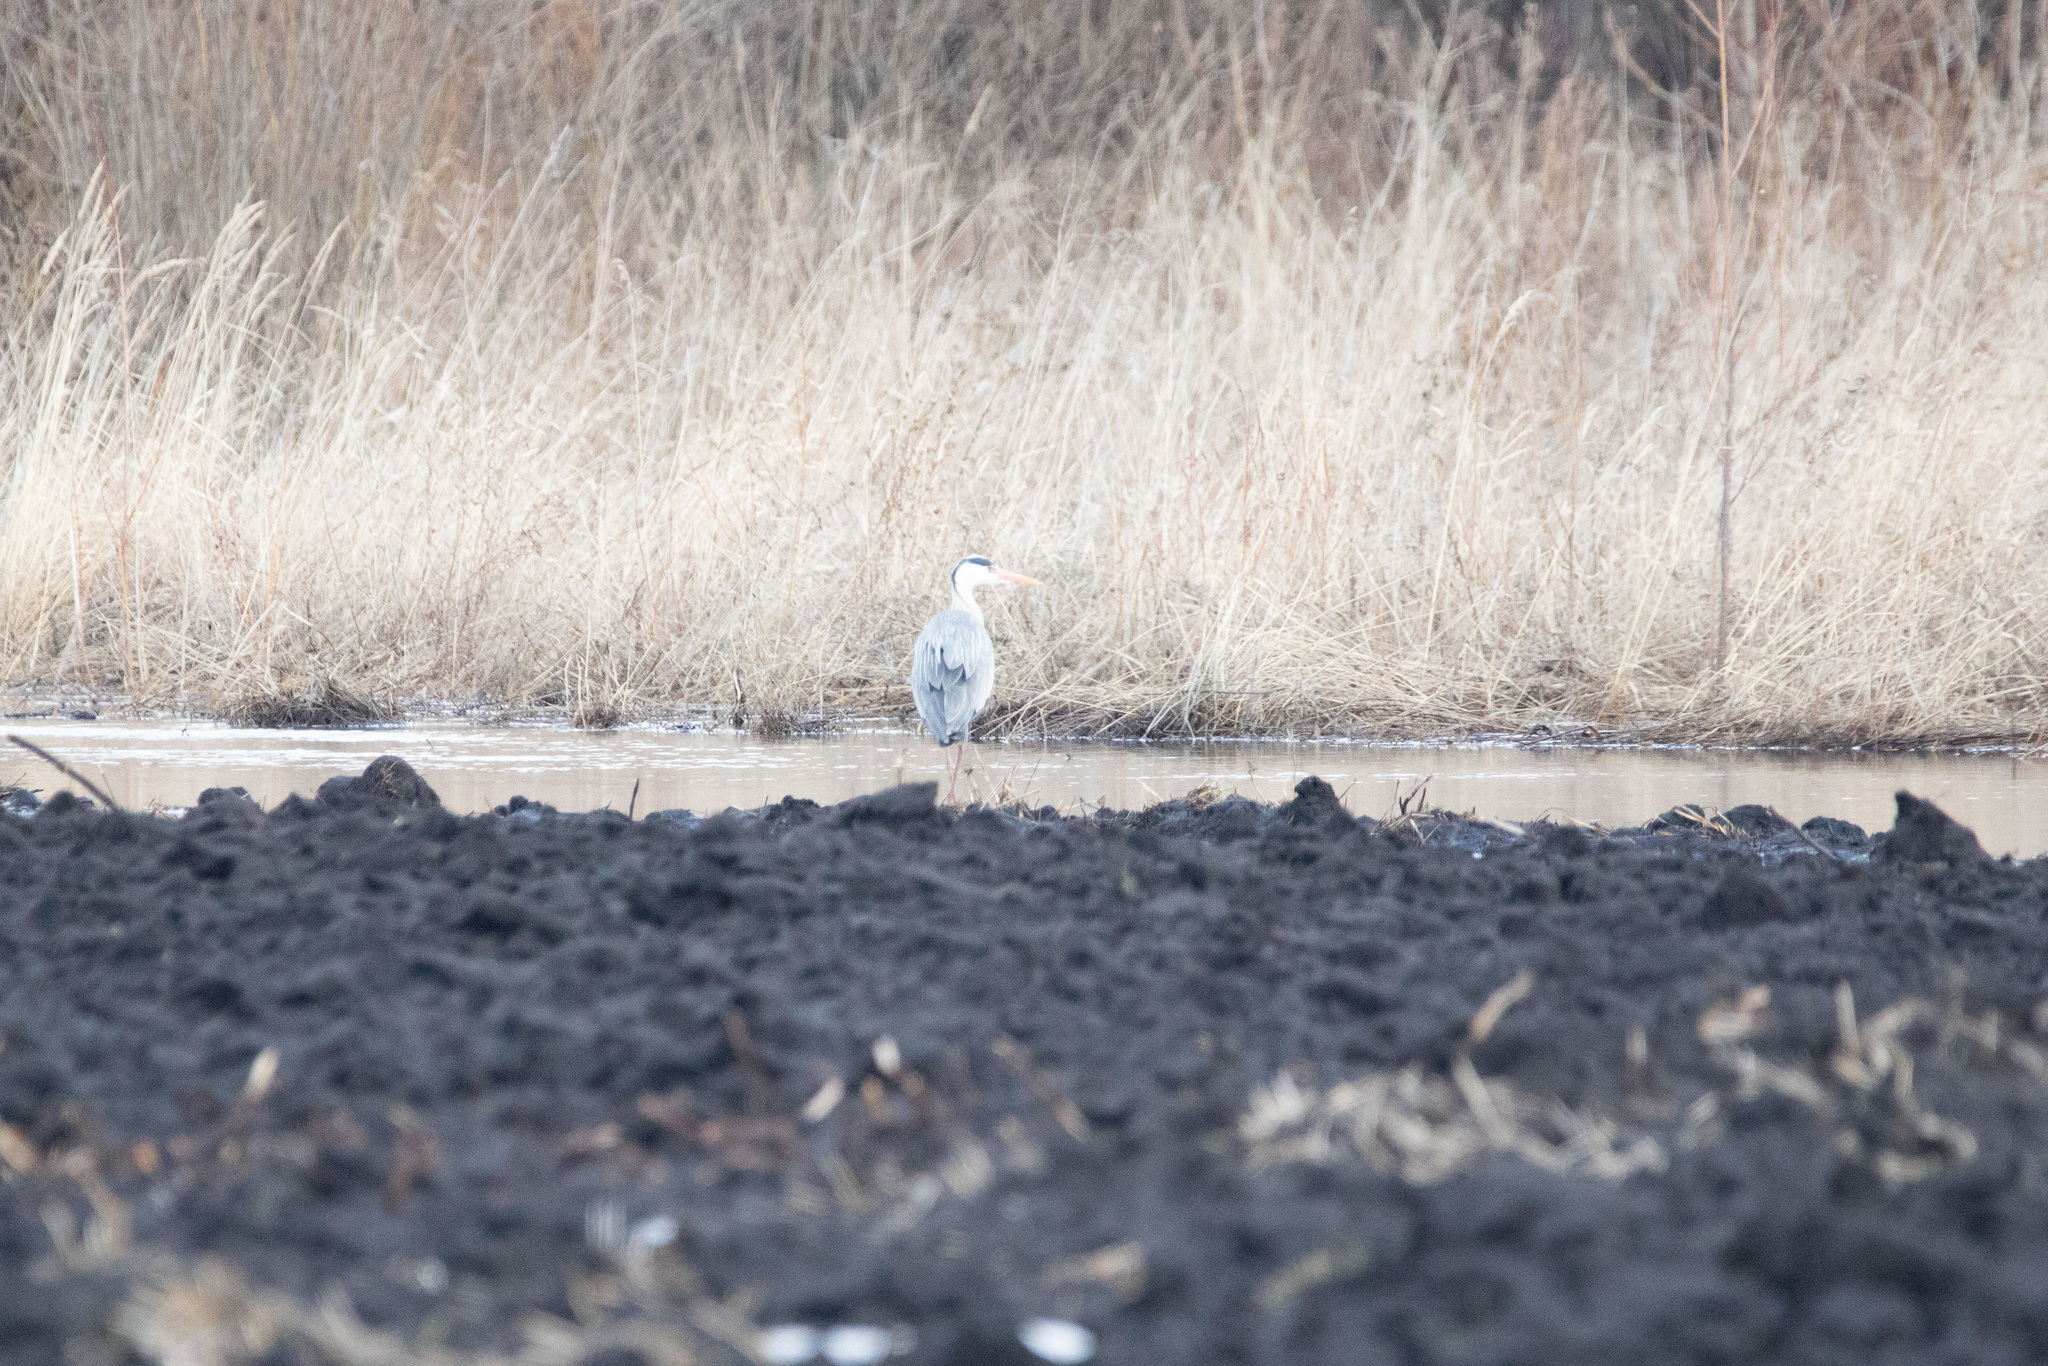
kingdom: Animalia
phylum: Chordata
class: Aves
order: Pelecaniformes
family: Ardeidae
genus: Ardea
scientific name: Ardea cinerea
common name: Grey heron
